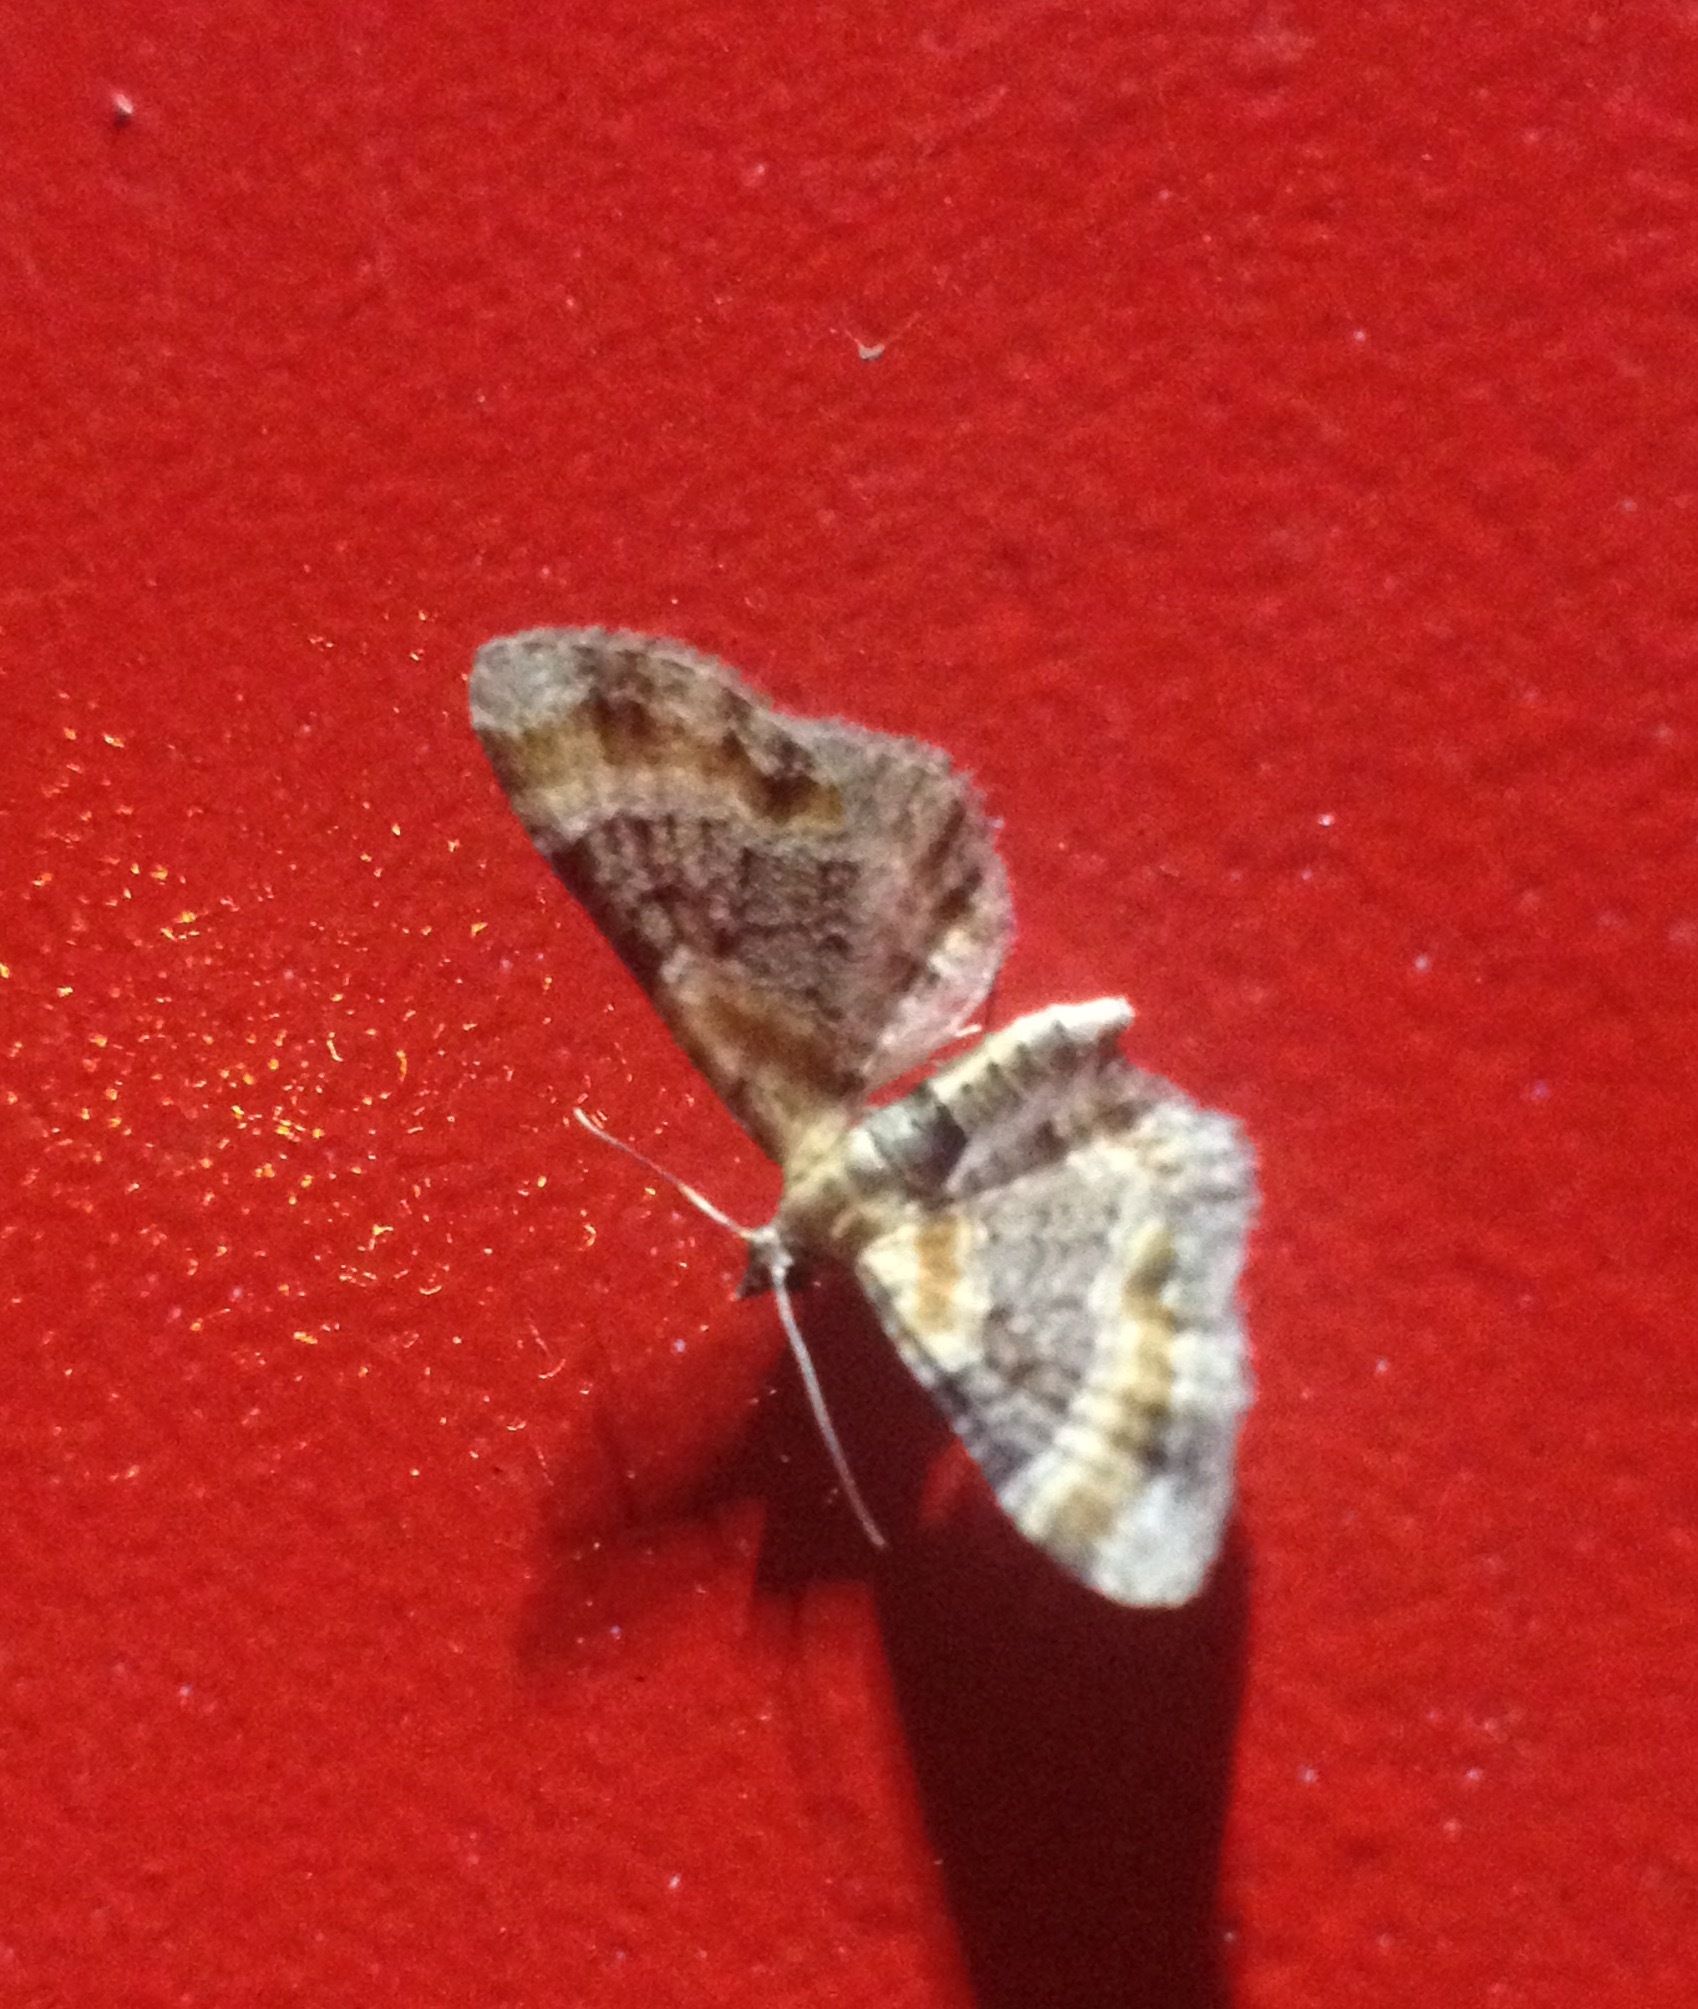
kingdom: Animalia
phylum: Arthropoda
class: Insecta
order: Lepidoptera
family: Geometridae
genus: Eupithecia
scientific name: Eupithecia linariata
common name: Toadflax pug
